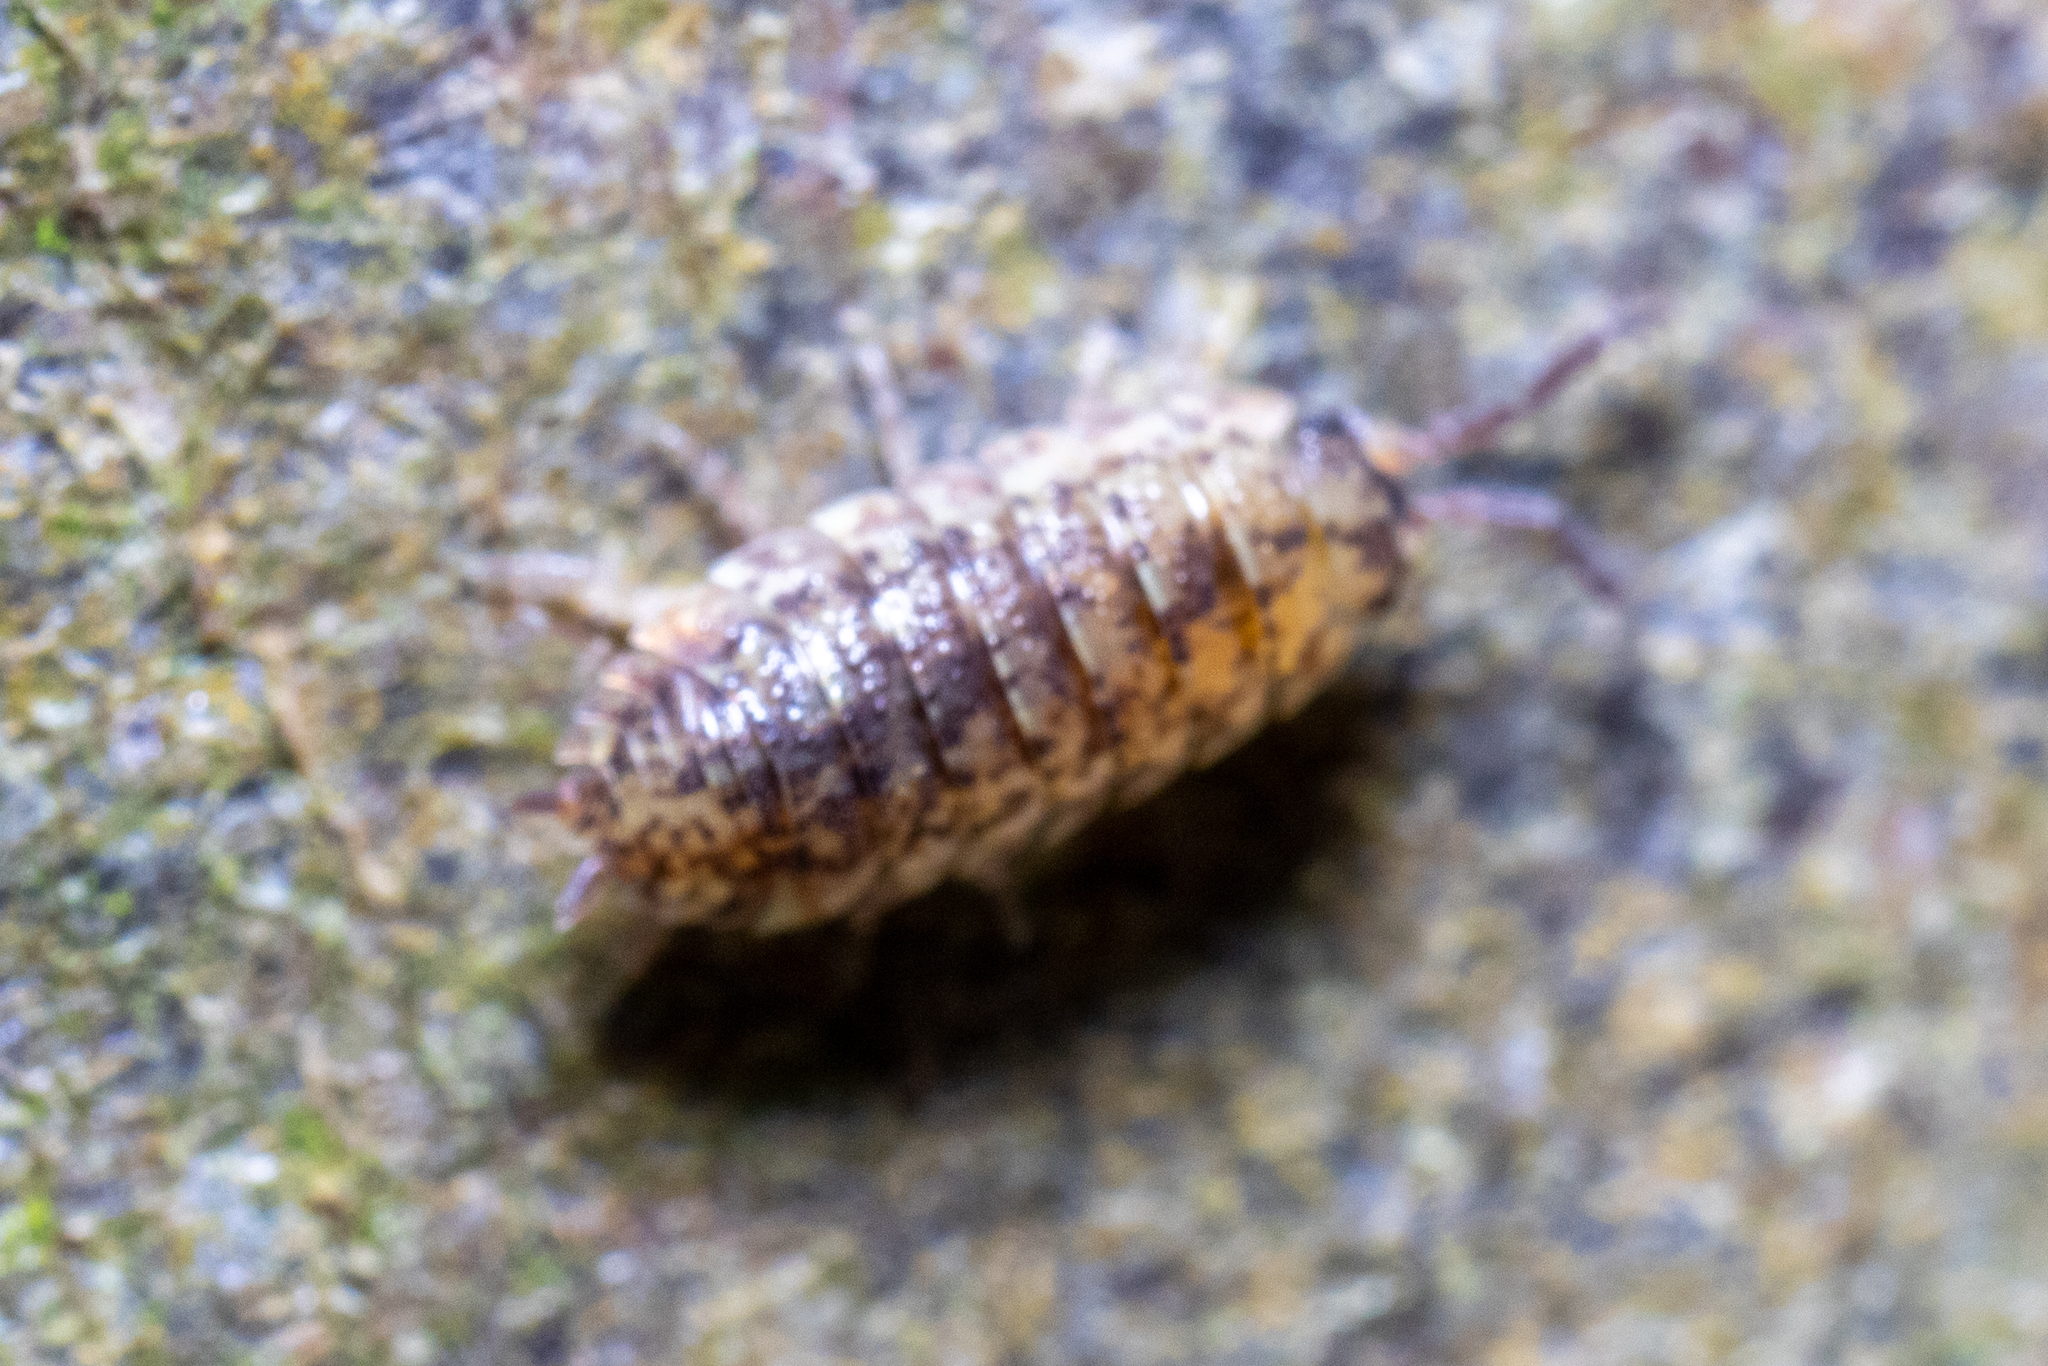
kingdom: Animalia
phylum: Arthropoda
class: Malacostraca
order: Isopoda
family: Porcellionidae
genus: Porcellio
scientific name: Porcellio scaber
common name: Common rough woodlouse
